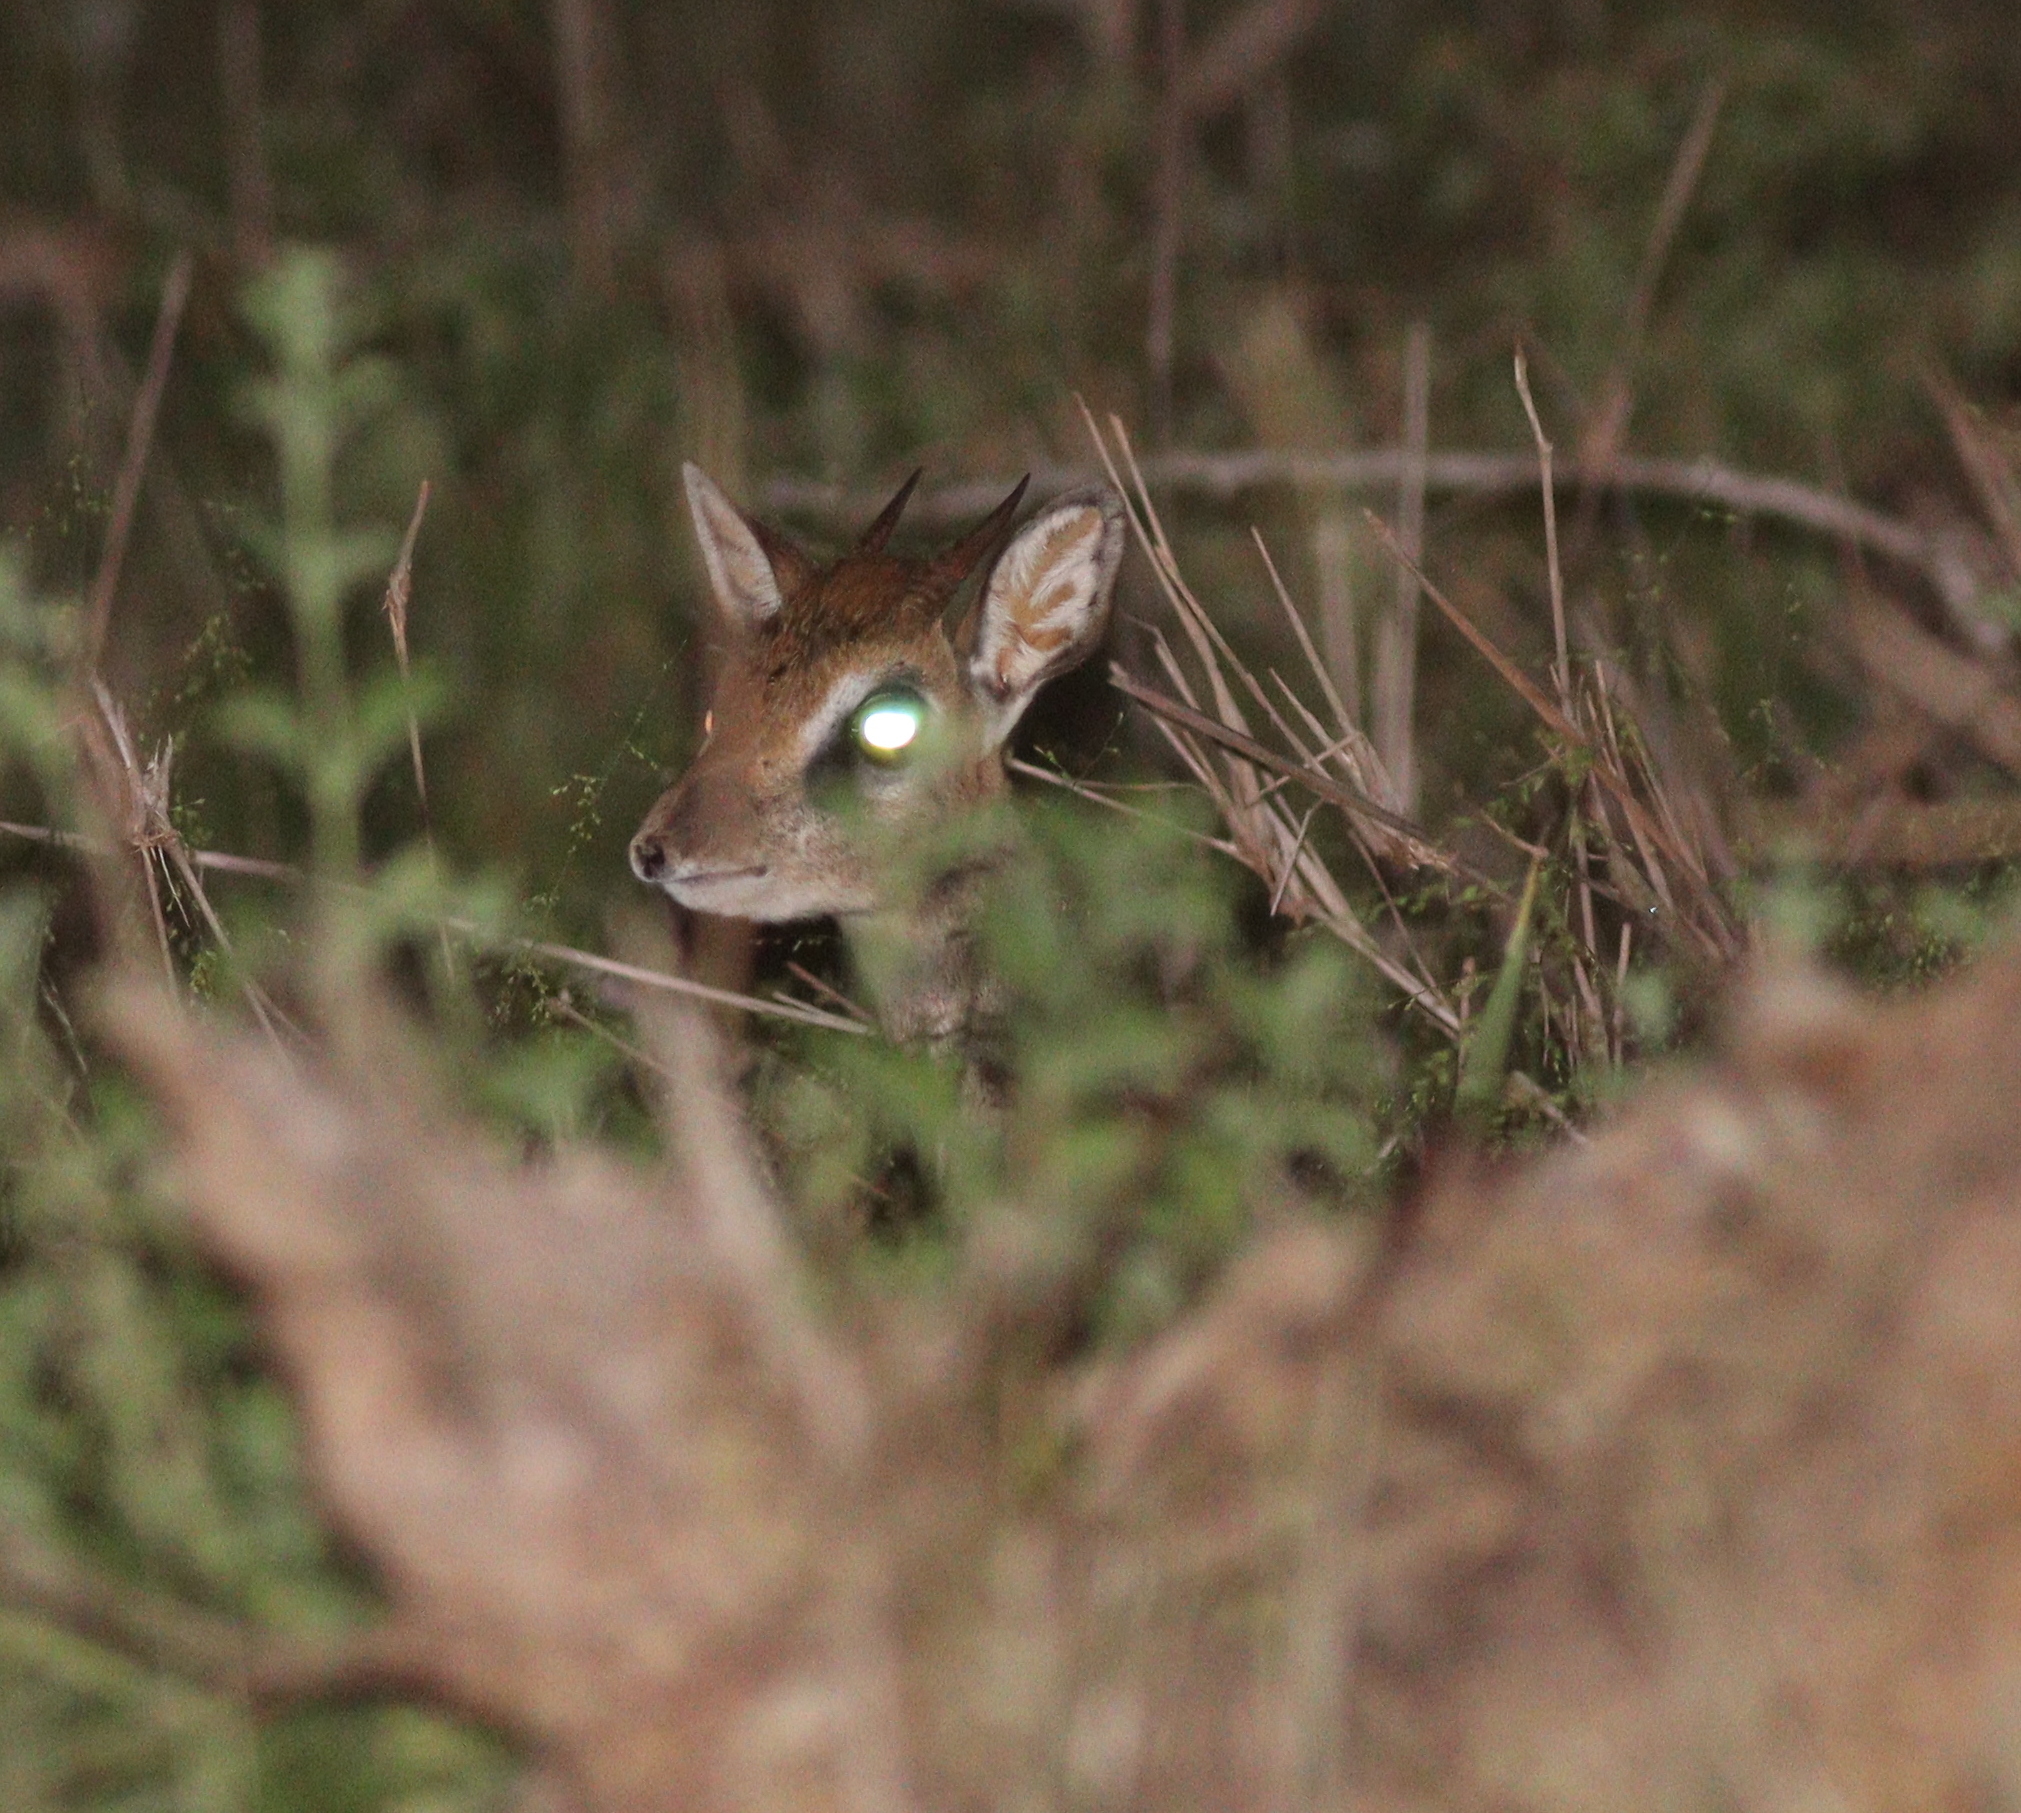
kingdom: Animalia
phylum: Chordata
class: Mammalia
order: Artiodactyla
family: Bovidae
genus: Madoqua
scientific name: Madoqua
